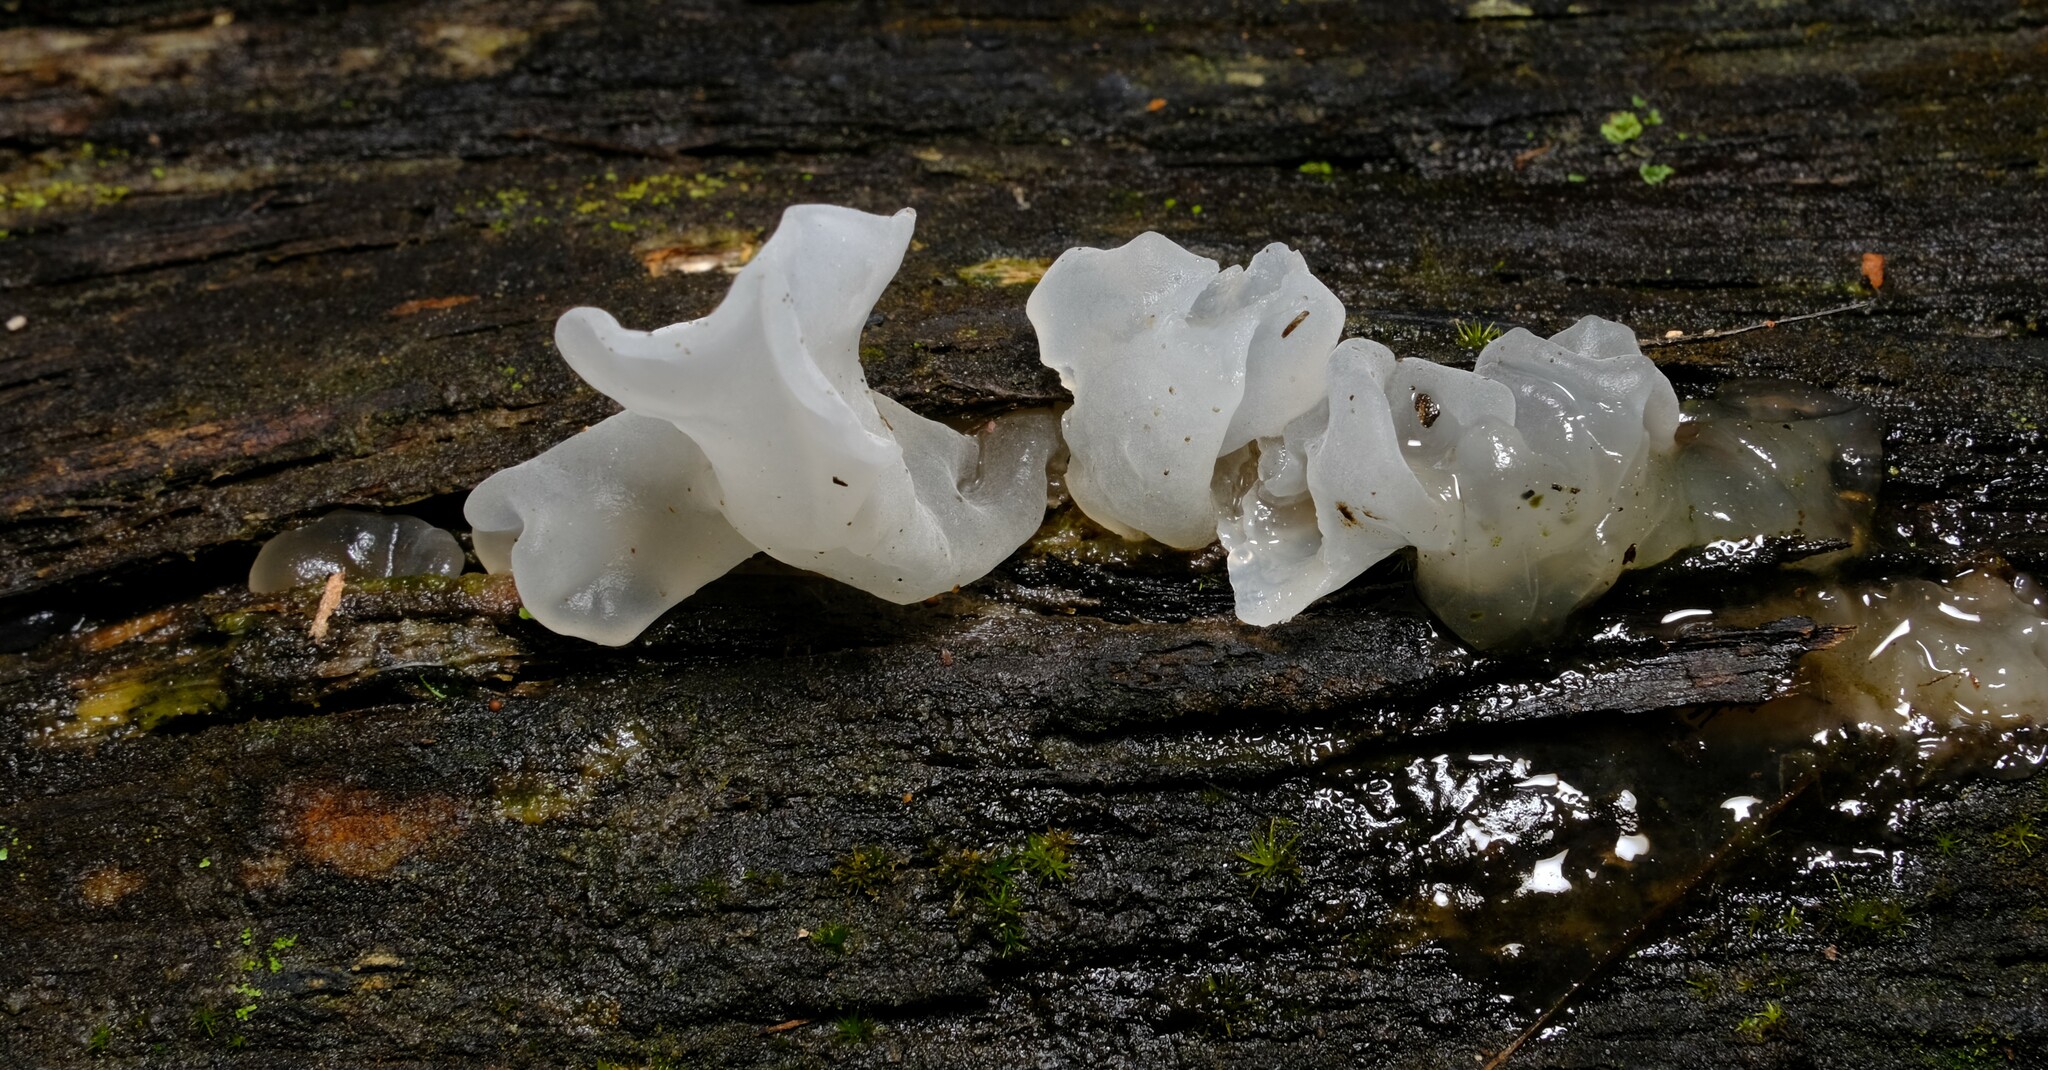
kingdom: Fungi
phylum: Basidiomycota
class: Tremellomycetes
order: Tremellales
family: Tremellaceae
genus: Tremella
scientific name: Tremella fuciformis
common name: Snow fungus
